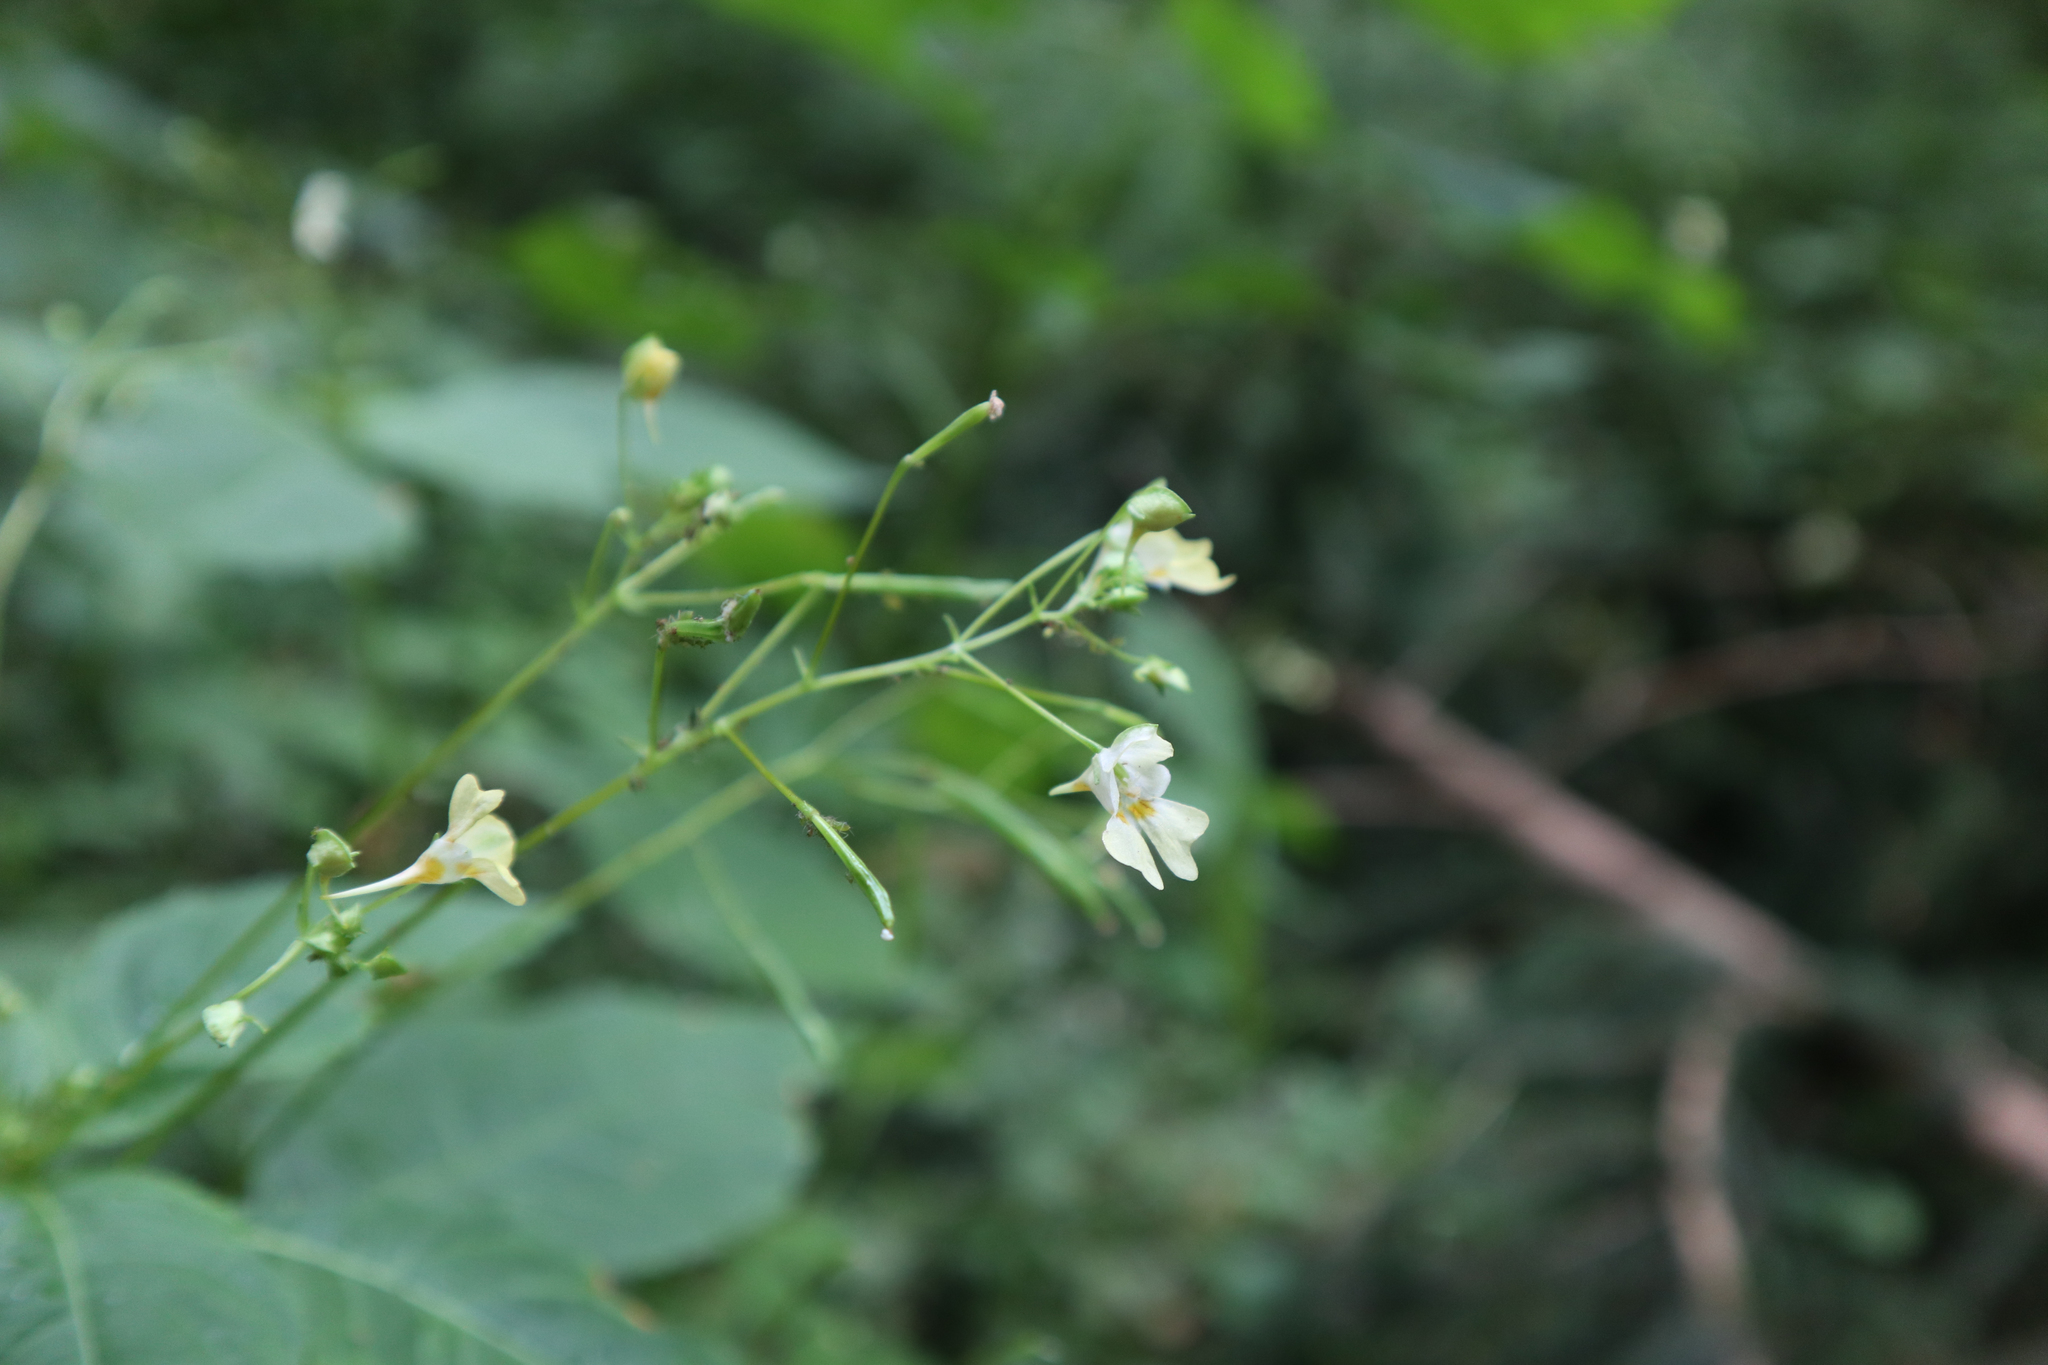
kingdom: Plantae
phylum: Tracheophyta
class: Magnoliopsida
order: Ericales
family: Balsaminaceae
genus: Impatiens
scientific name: Impatiens parviflora
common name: Small balsam
